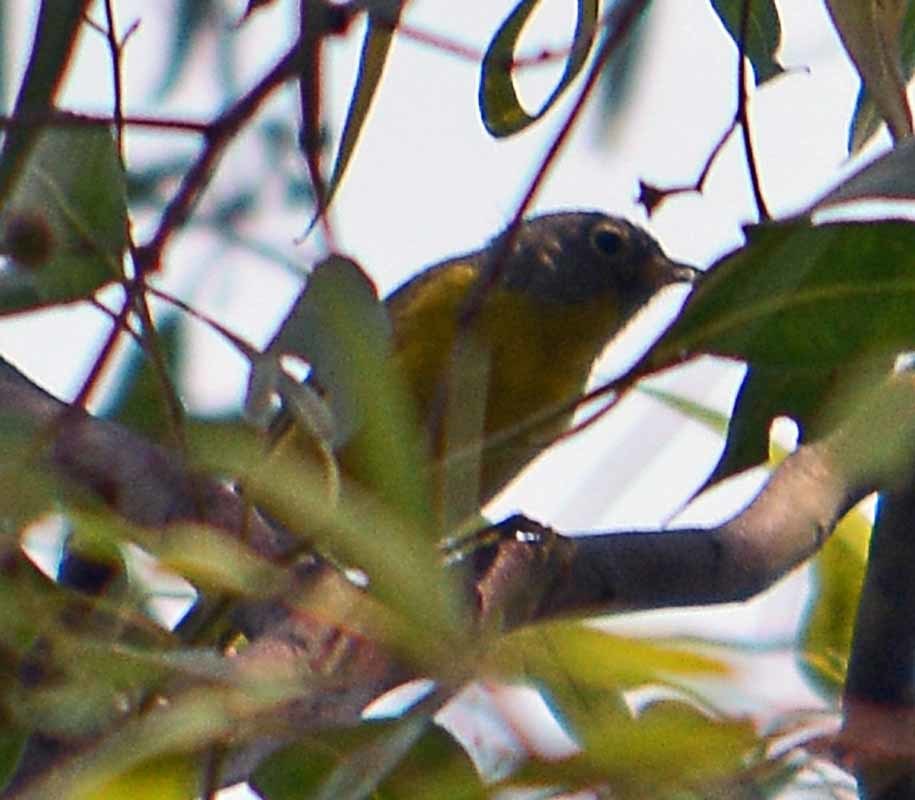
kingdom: Animalia
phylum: Chordata
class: Aves
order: Passeriformes
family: Parulidae
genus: Leiothlypis
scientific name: Leiothlypis ruficapilla
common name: Nashville warbler
